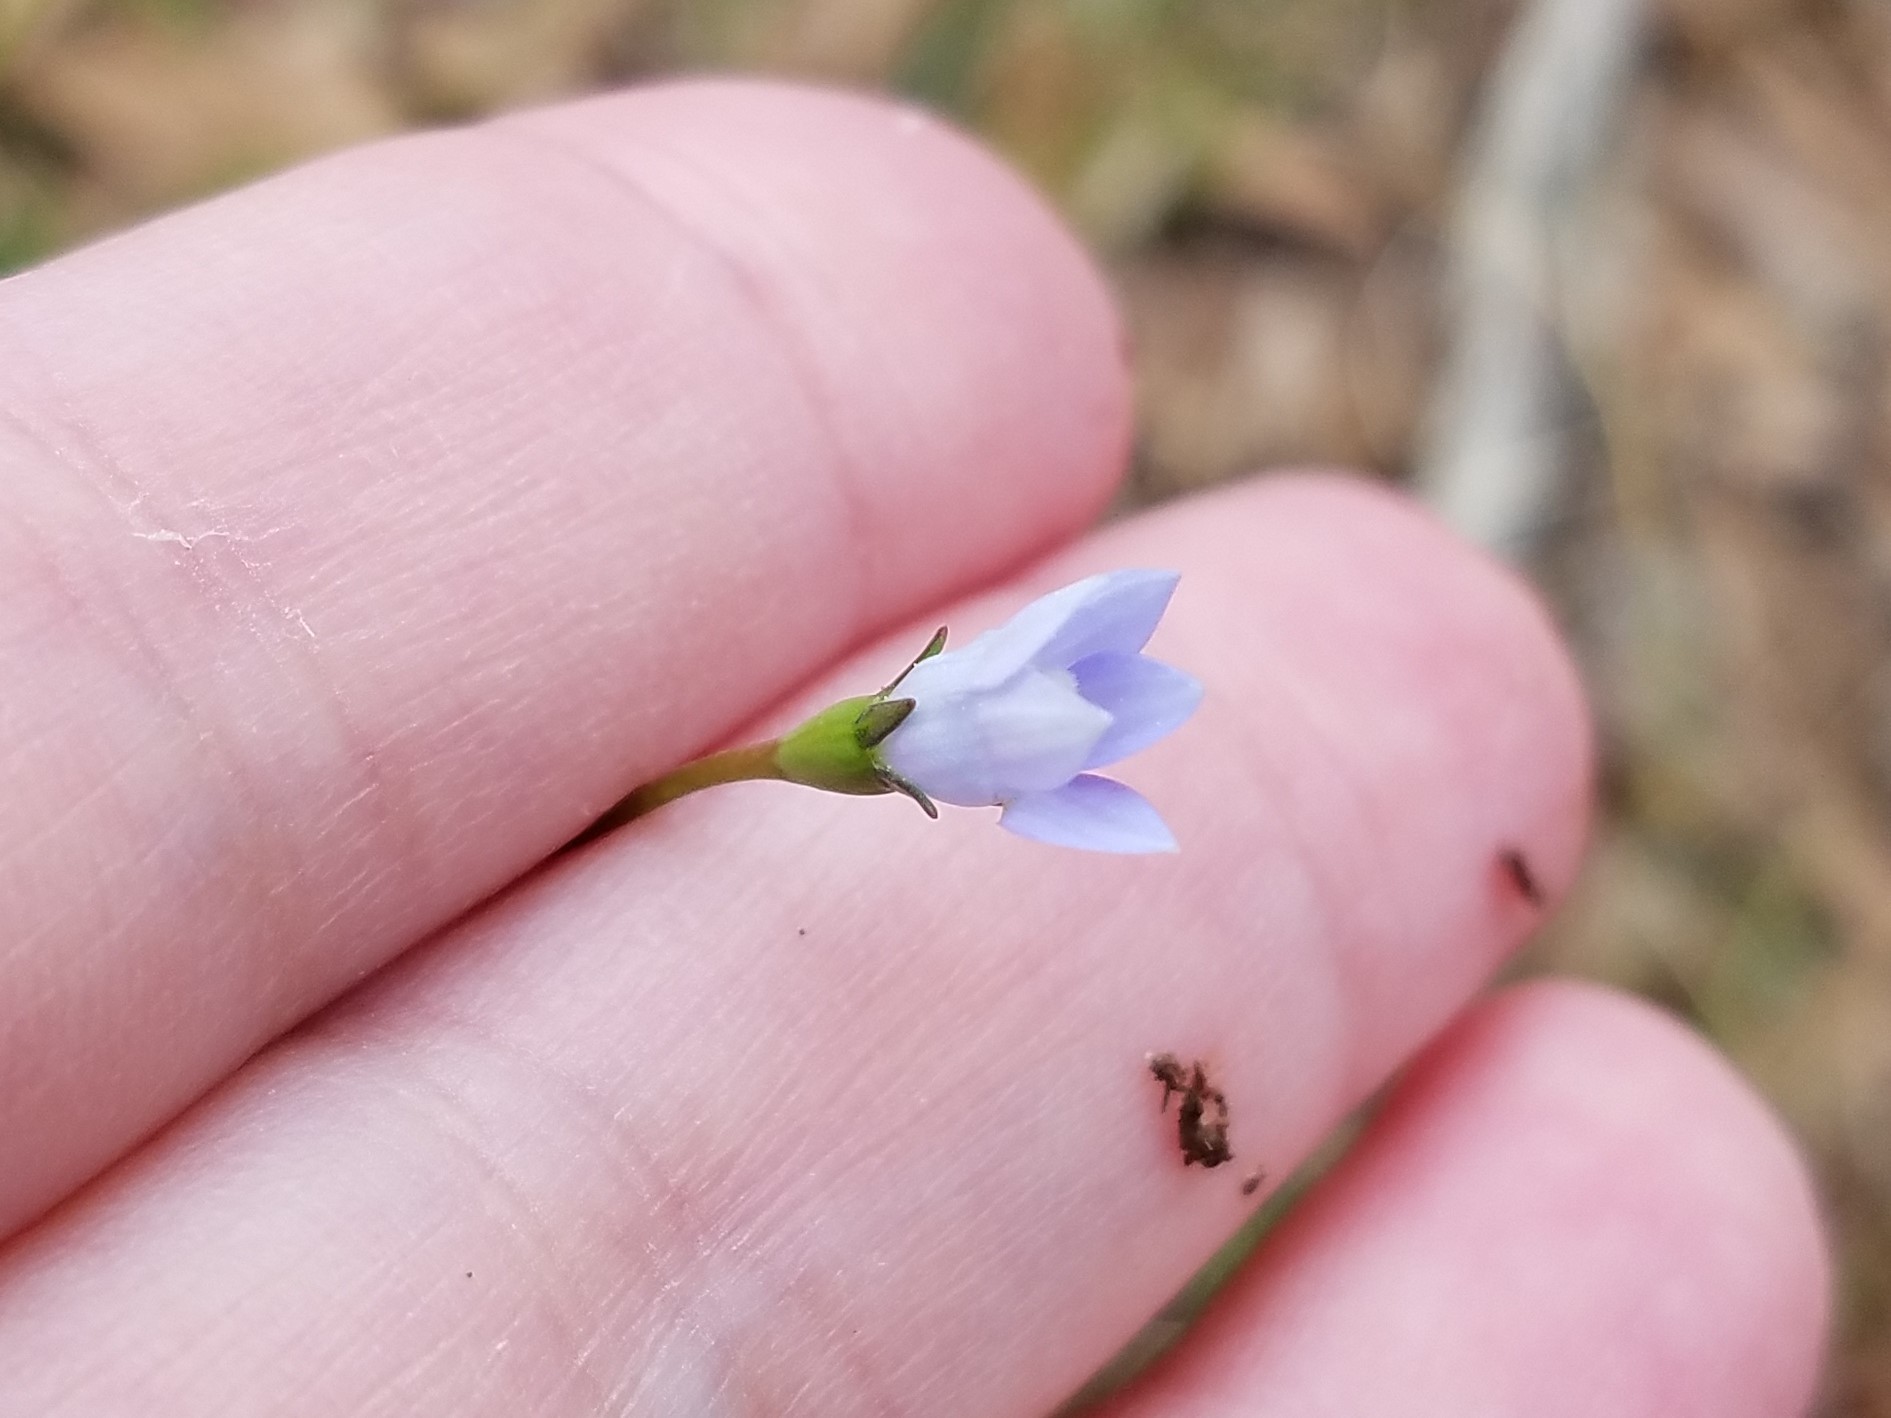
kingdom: Plantae
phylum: Tracheophyta
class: Magnoliopsida
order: Asterales
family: Campanulaceae
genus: Wahlenbergia
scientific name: Wahlenbergia marginata
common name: Southern rockbell
